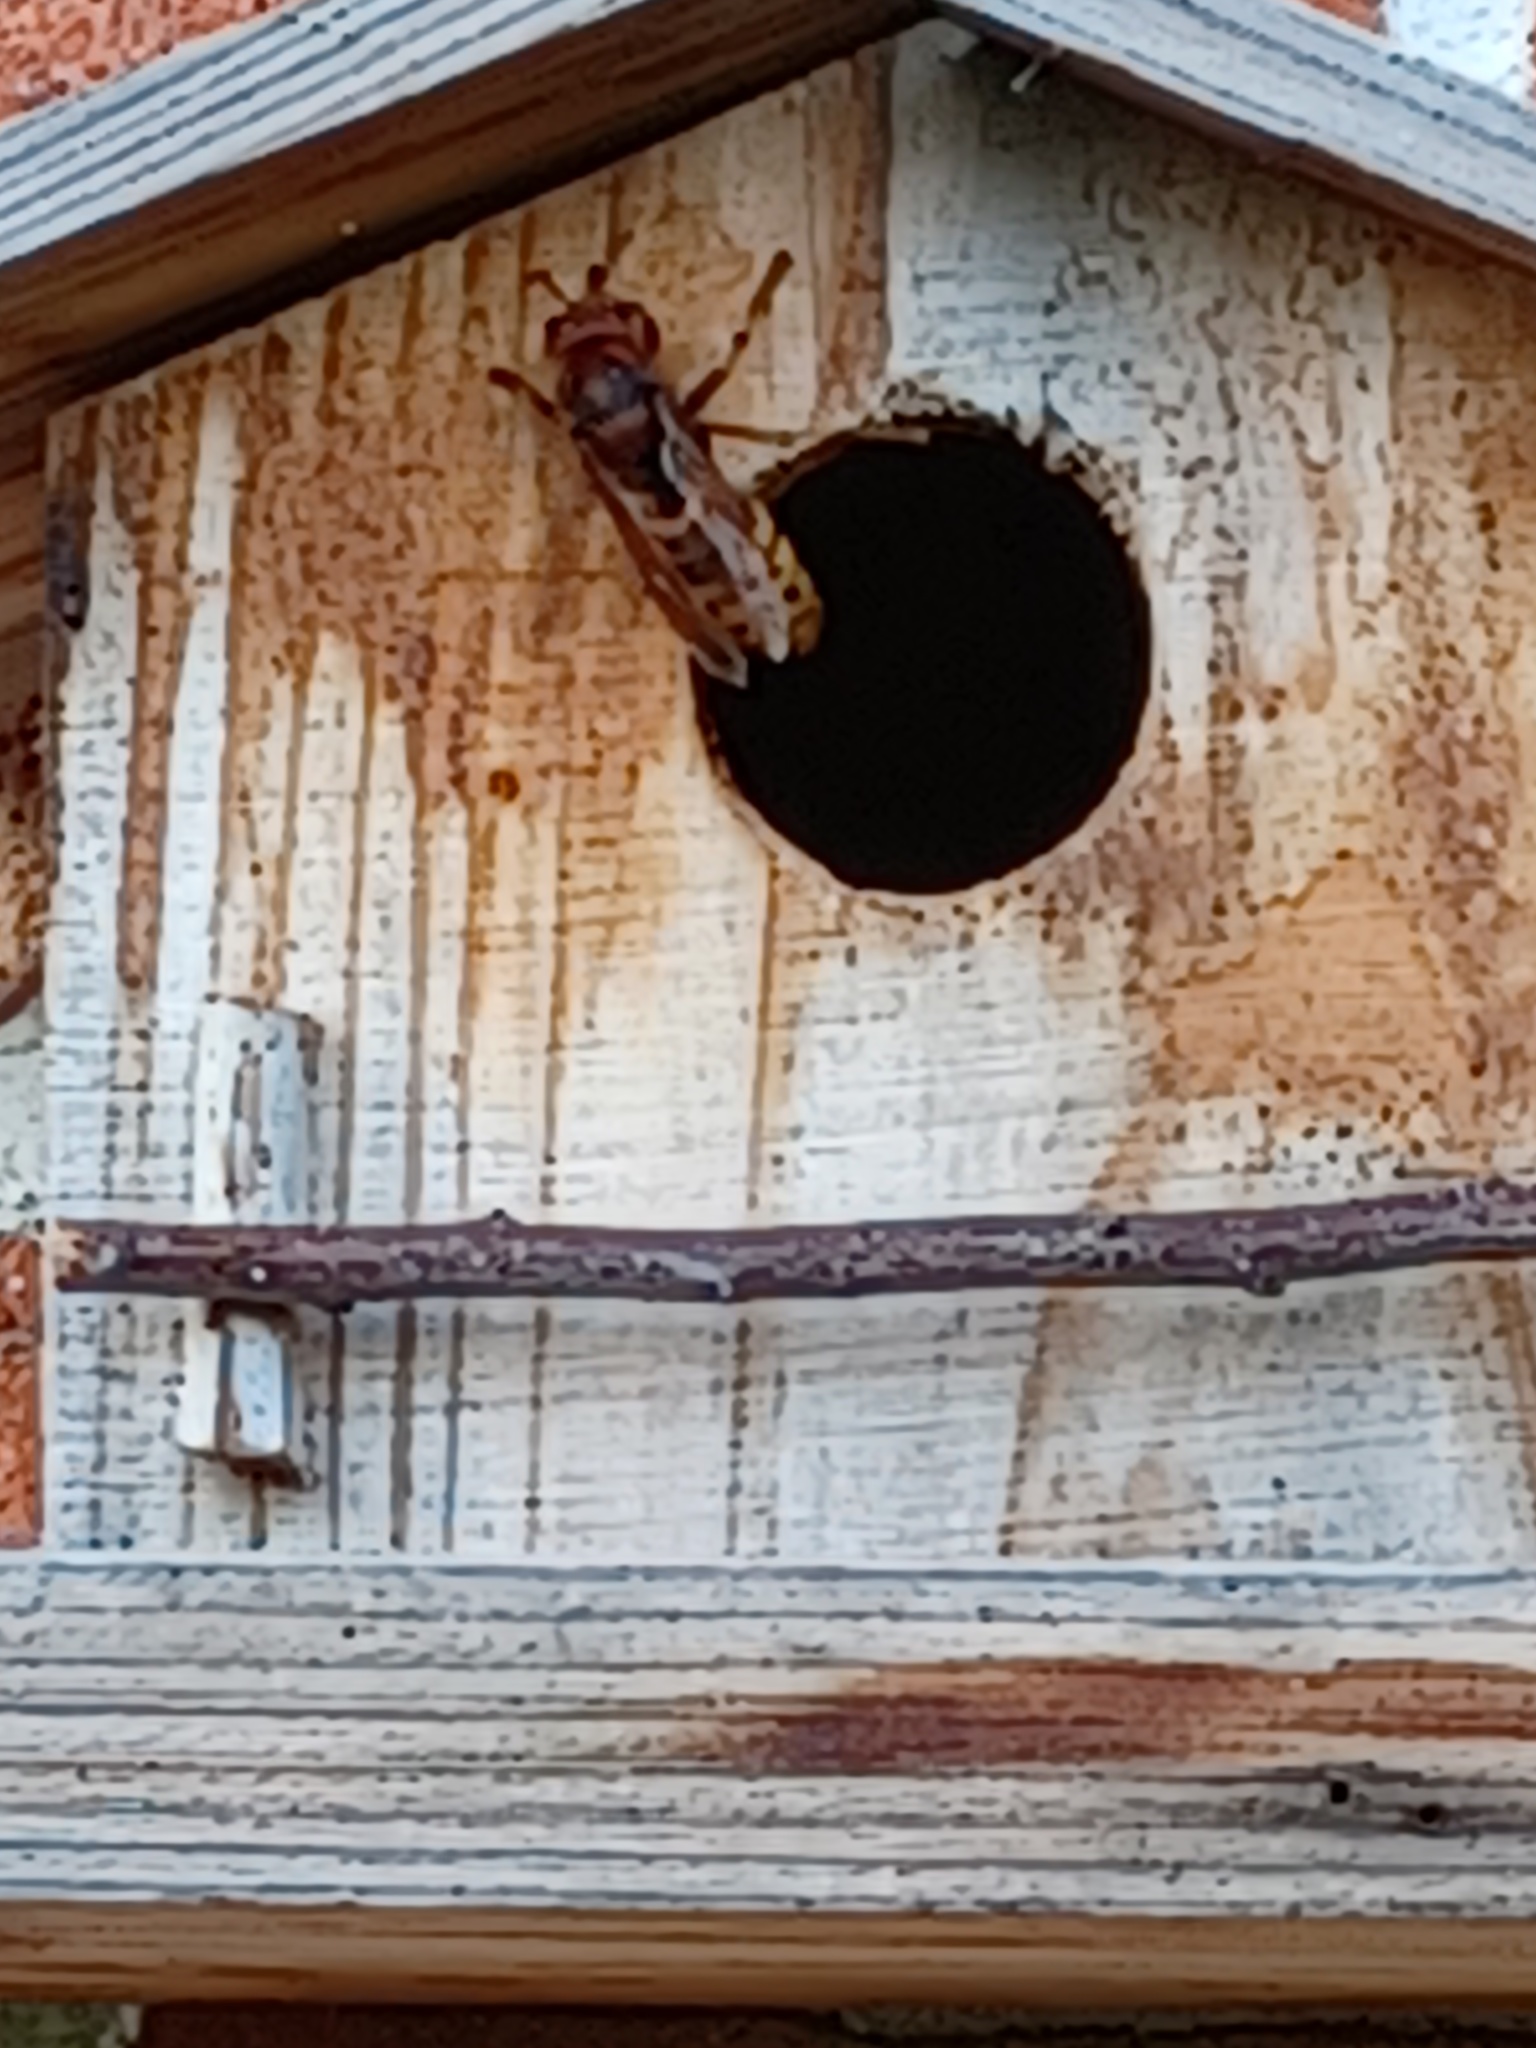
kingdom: Animalia
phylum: Arthropoda
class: Insecta
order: Hymenoptera
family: Vespidae
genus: Vespa
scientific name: Vespa crabro
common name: Hornet
